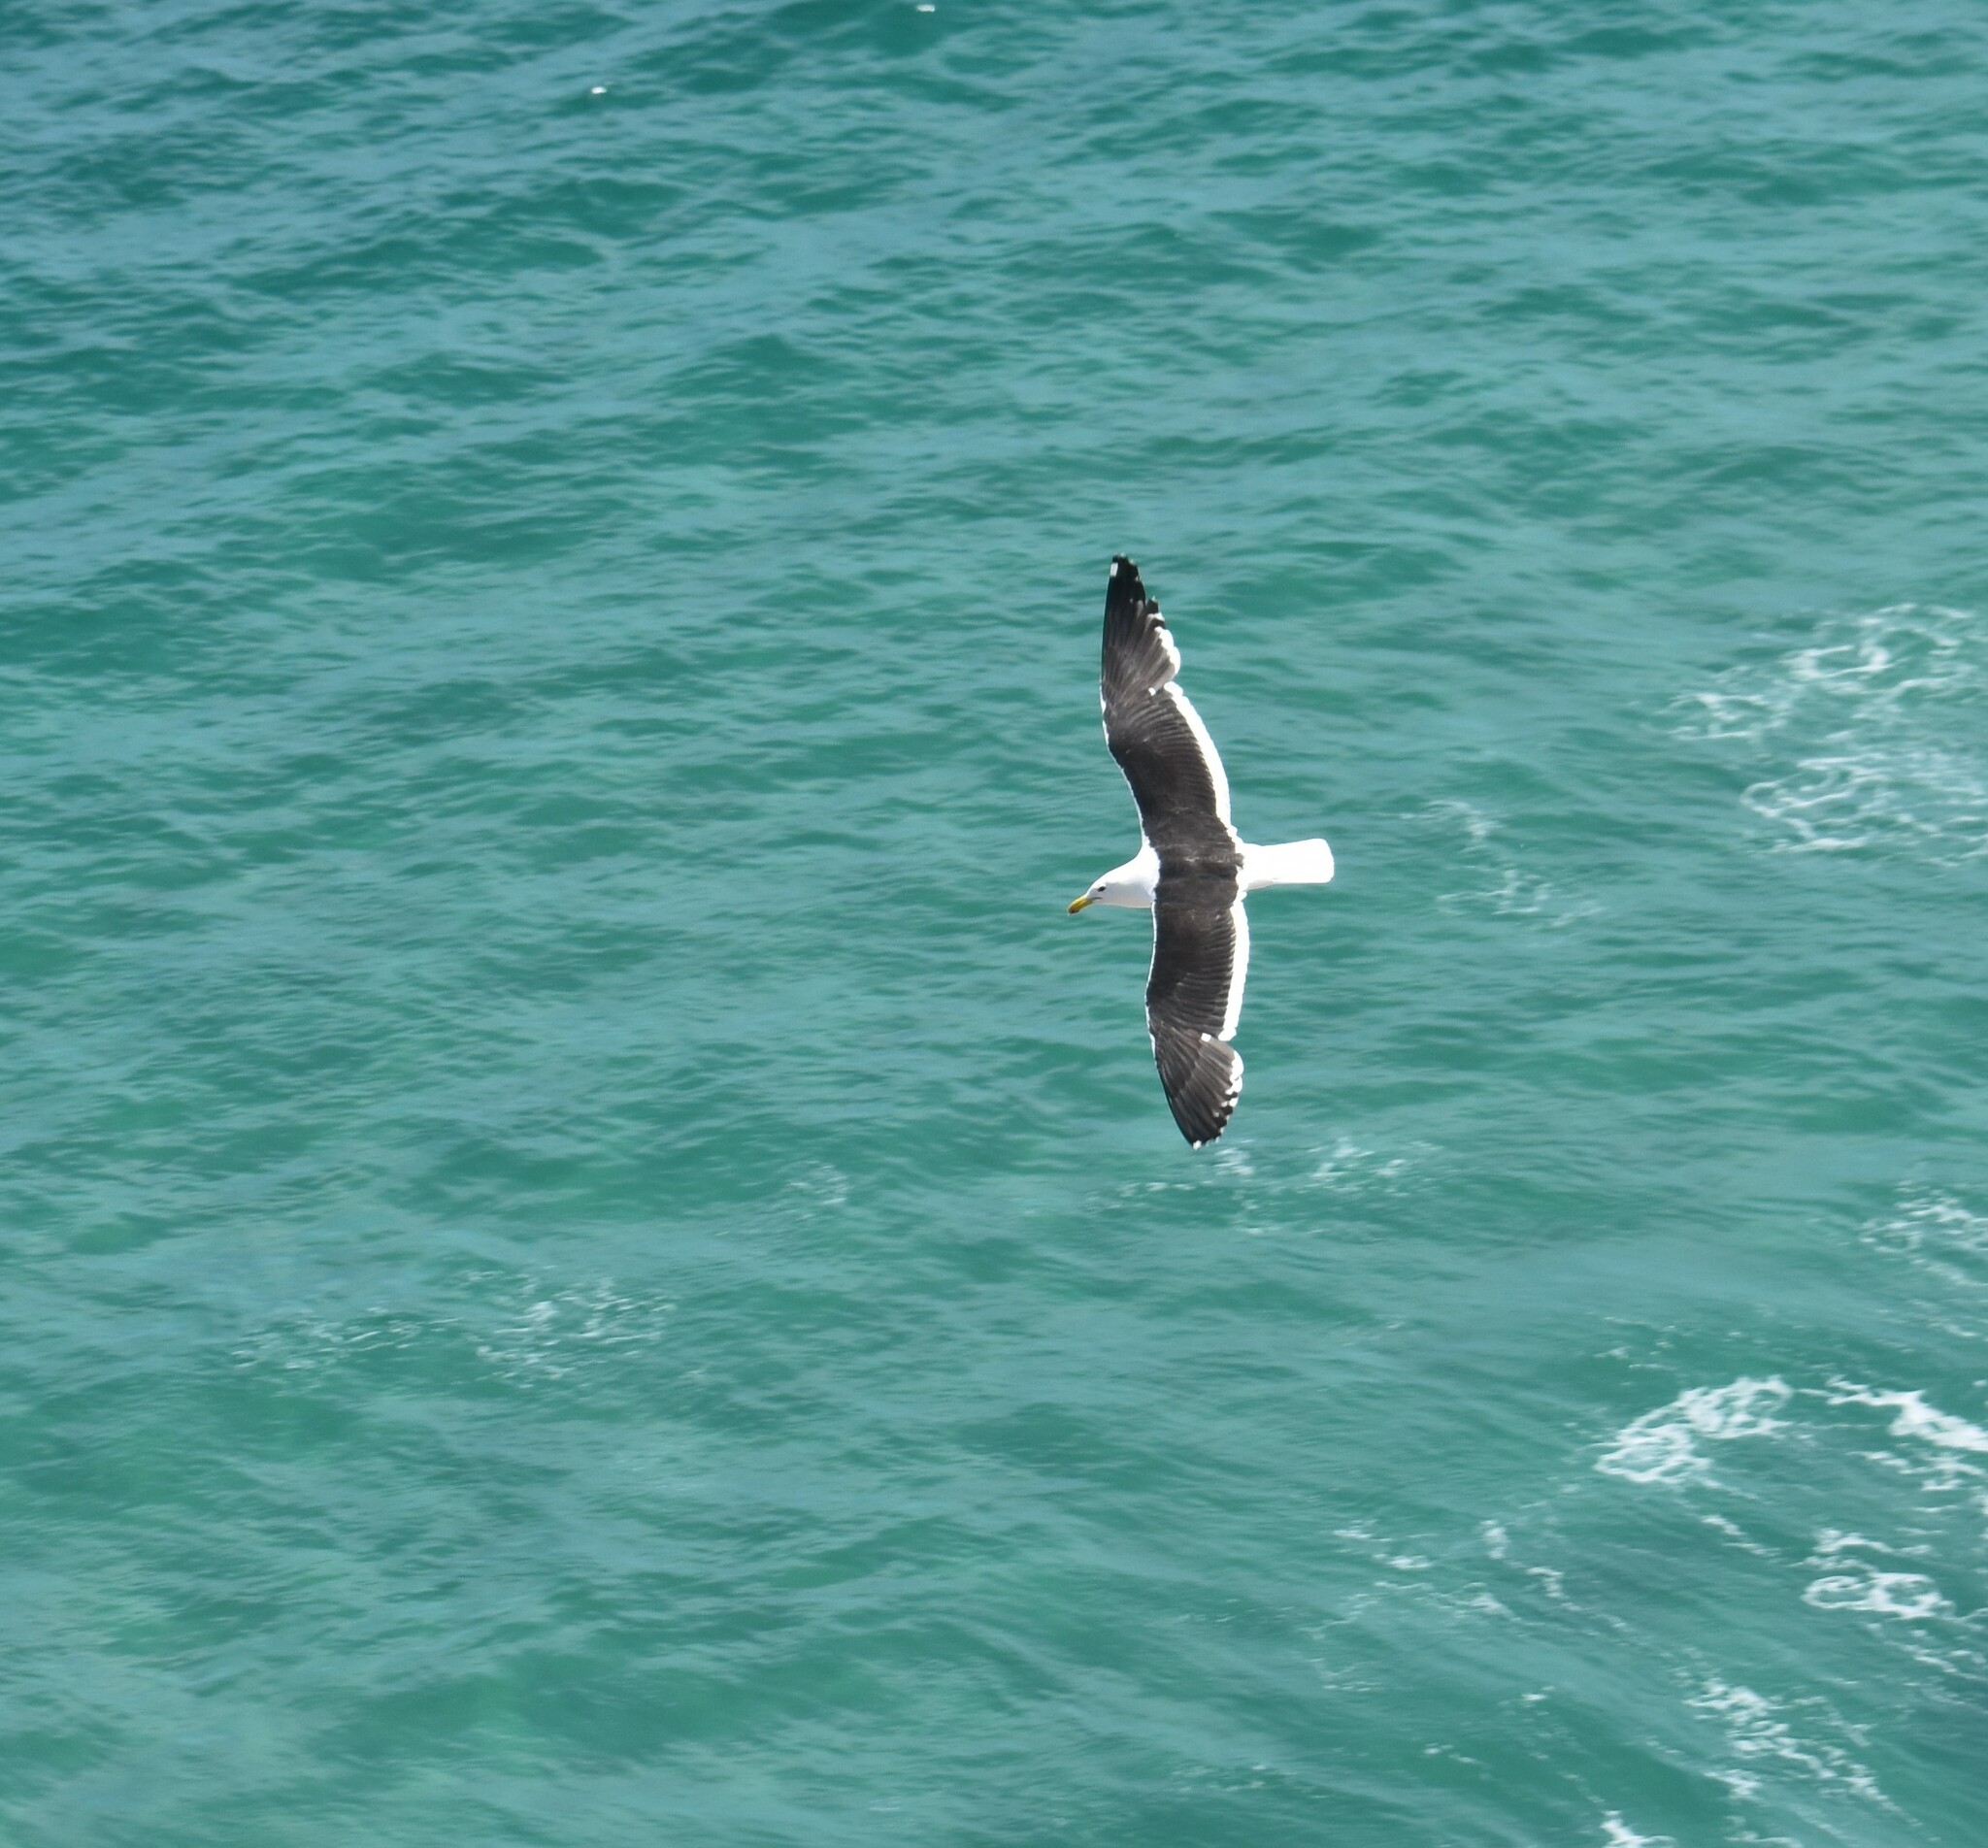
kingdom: Animalia
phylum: Chordata
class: Aves
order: Charadriiformes
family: Laridae
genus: Larus
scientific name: Larus dominicanus
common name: Kelp gull
